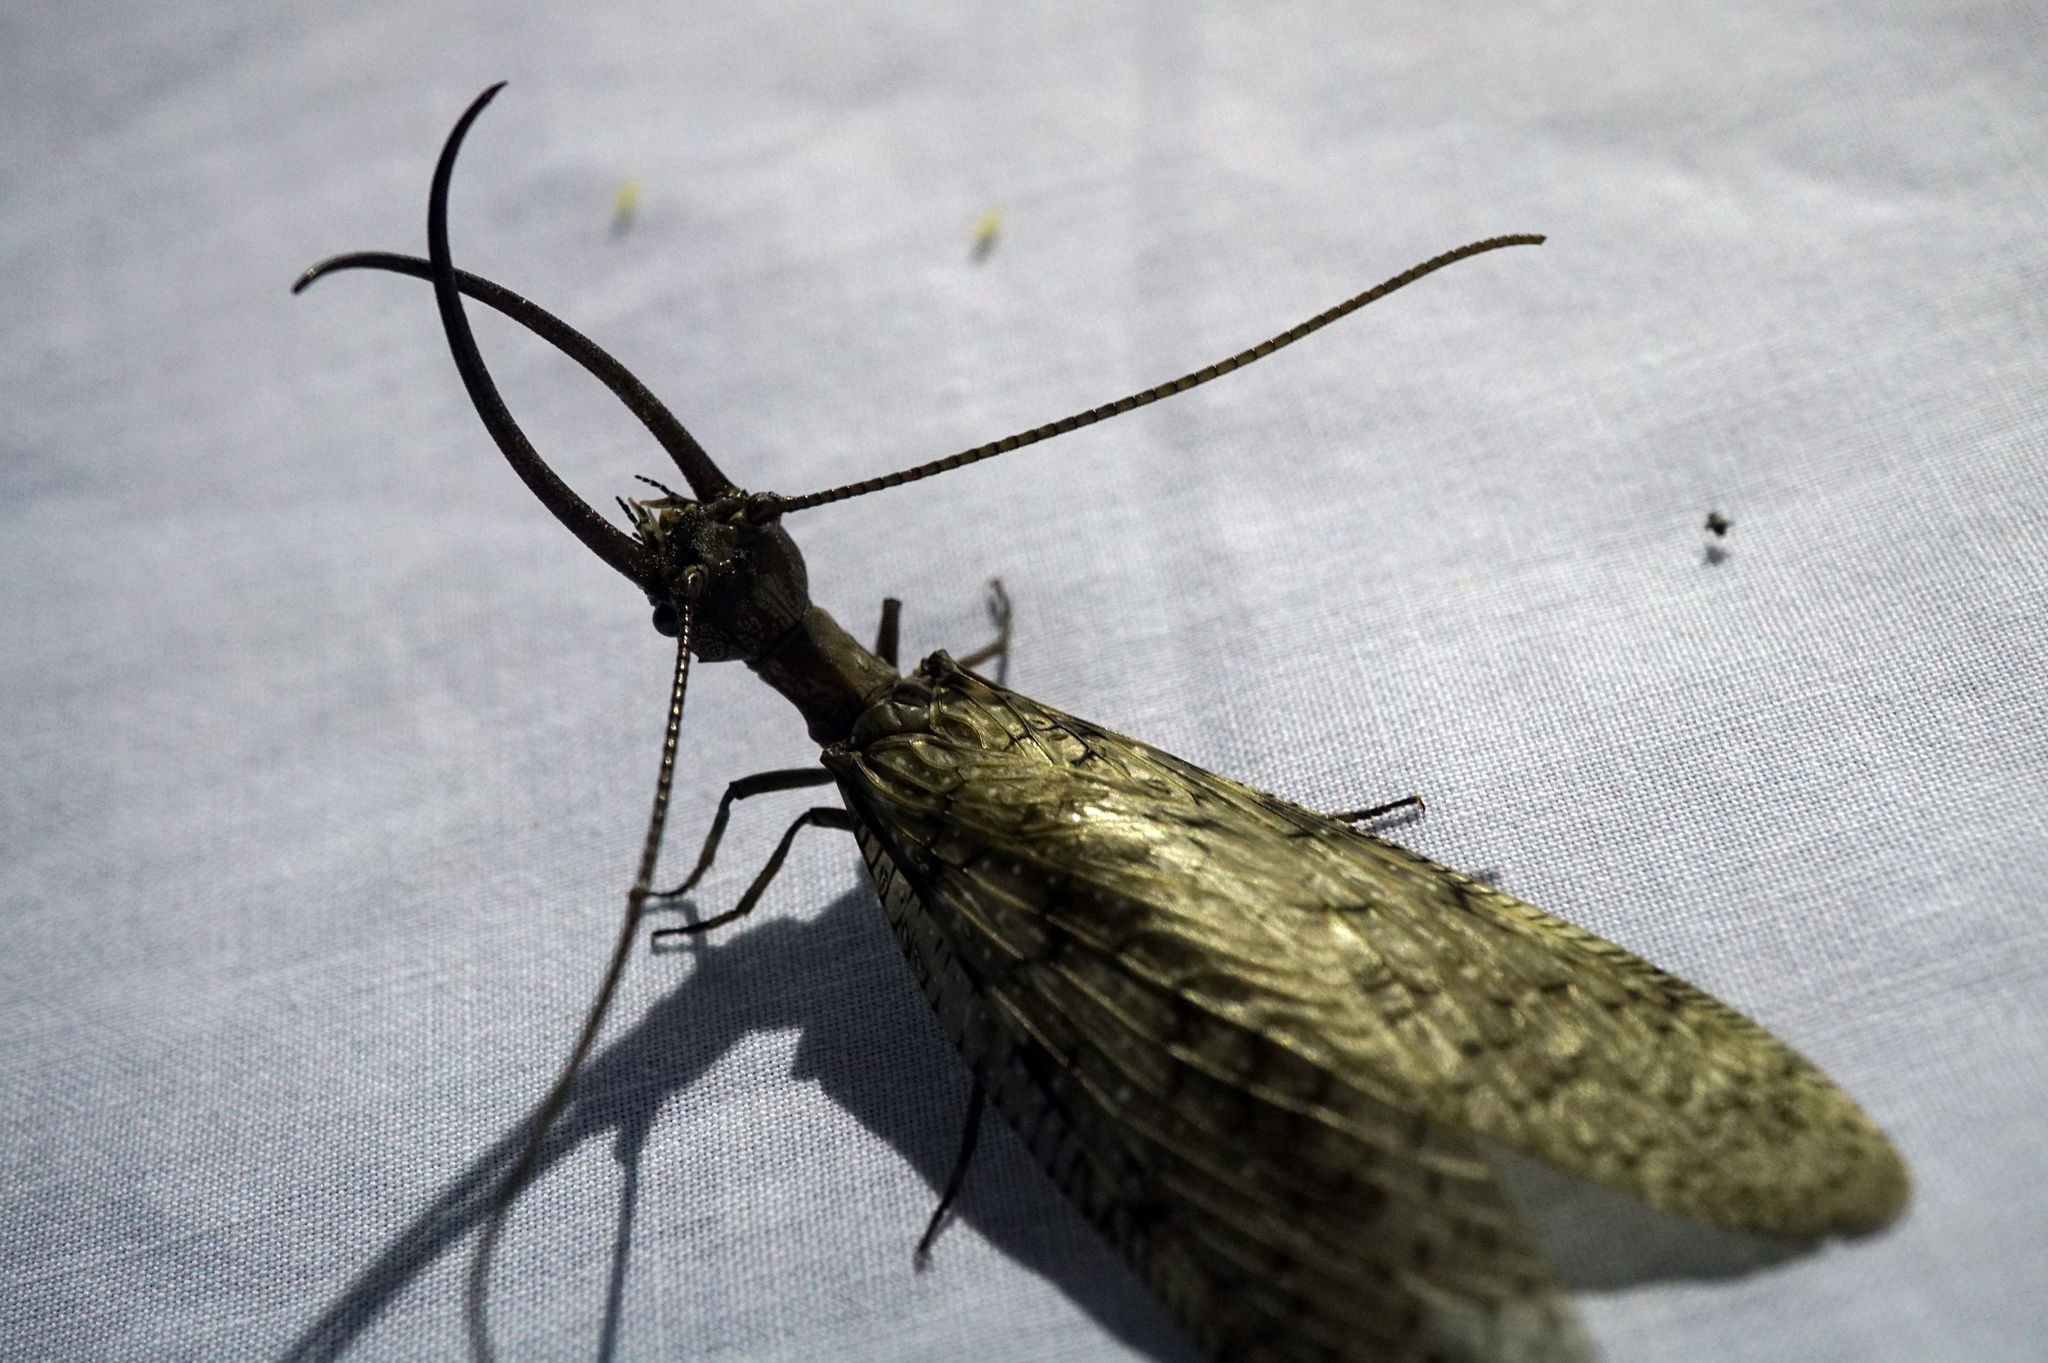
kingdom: Animalia
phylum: Arthropoda
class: Insecta
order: Megaloptera
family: Corydalidae
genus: Corydalus
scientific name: Corydalus cornutus
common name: Dobsonfly
